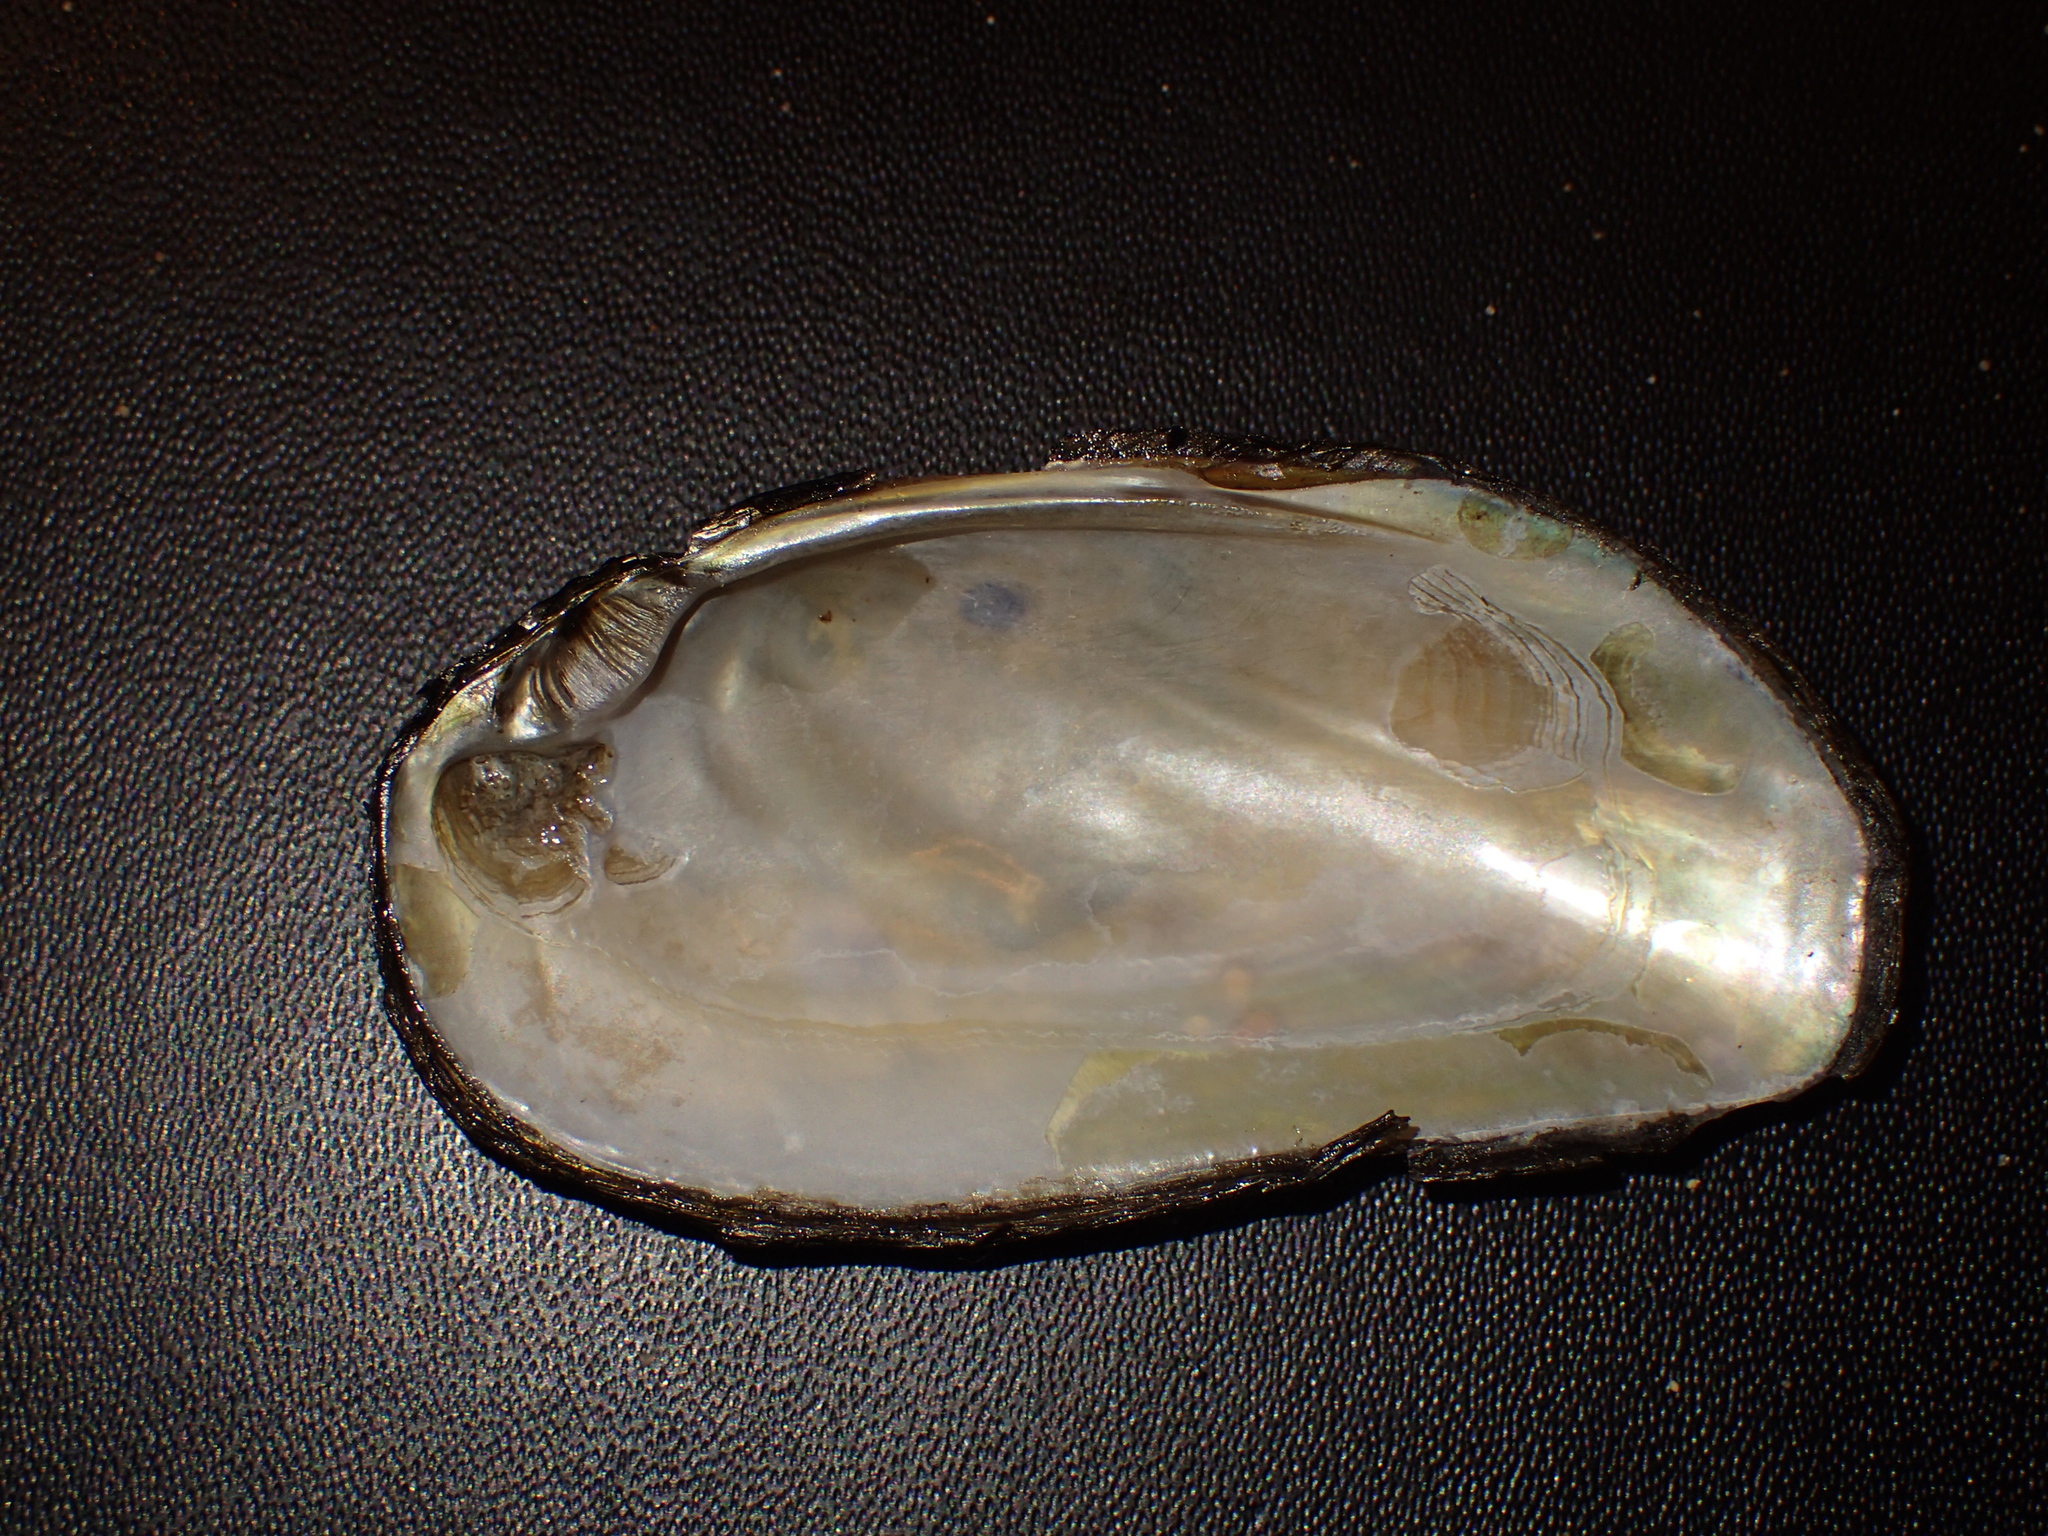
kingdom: Animalia
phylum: Mollusca
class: Bivalvia
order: Unionida
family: Unionidae
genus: Elliptio
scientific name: Elliptio complanata
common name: Eastern elliptio
